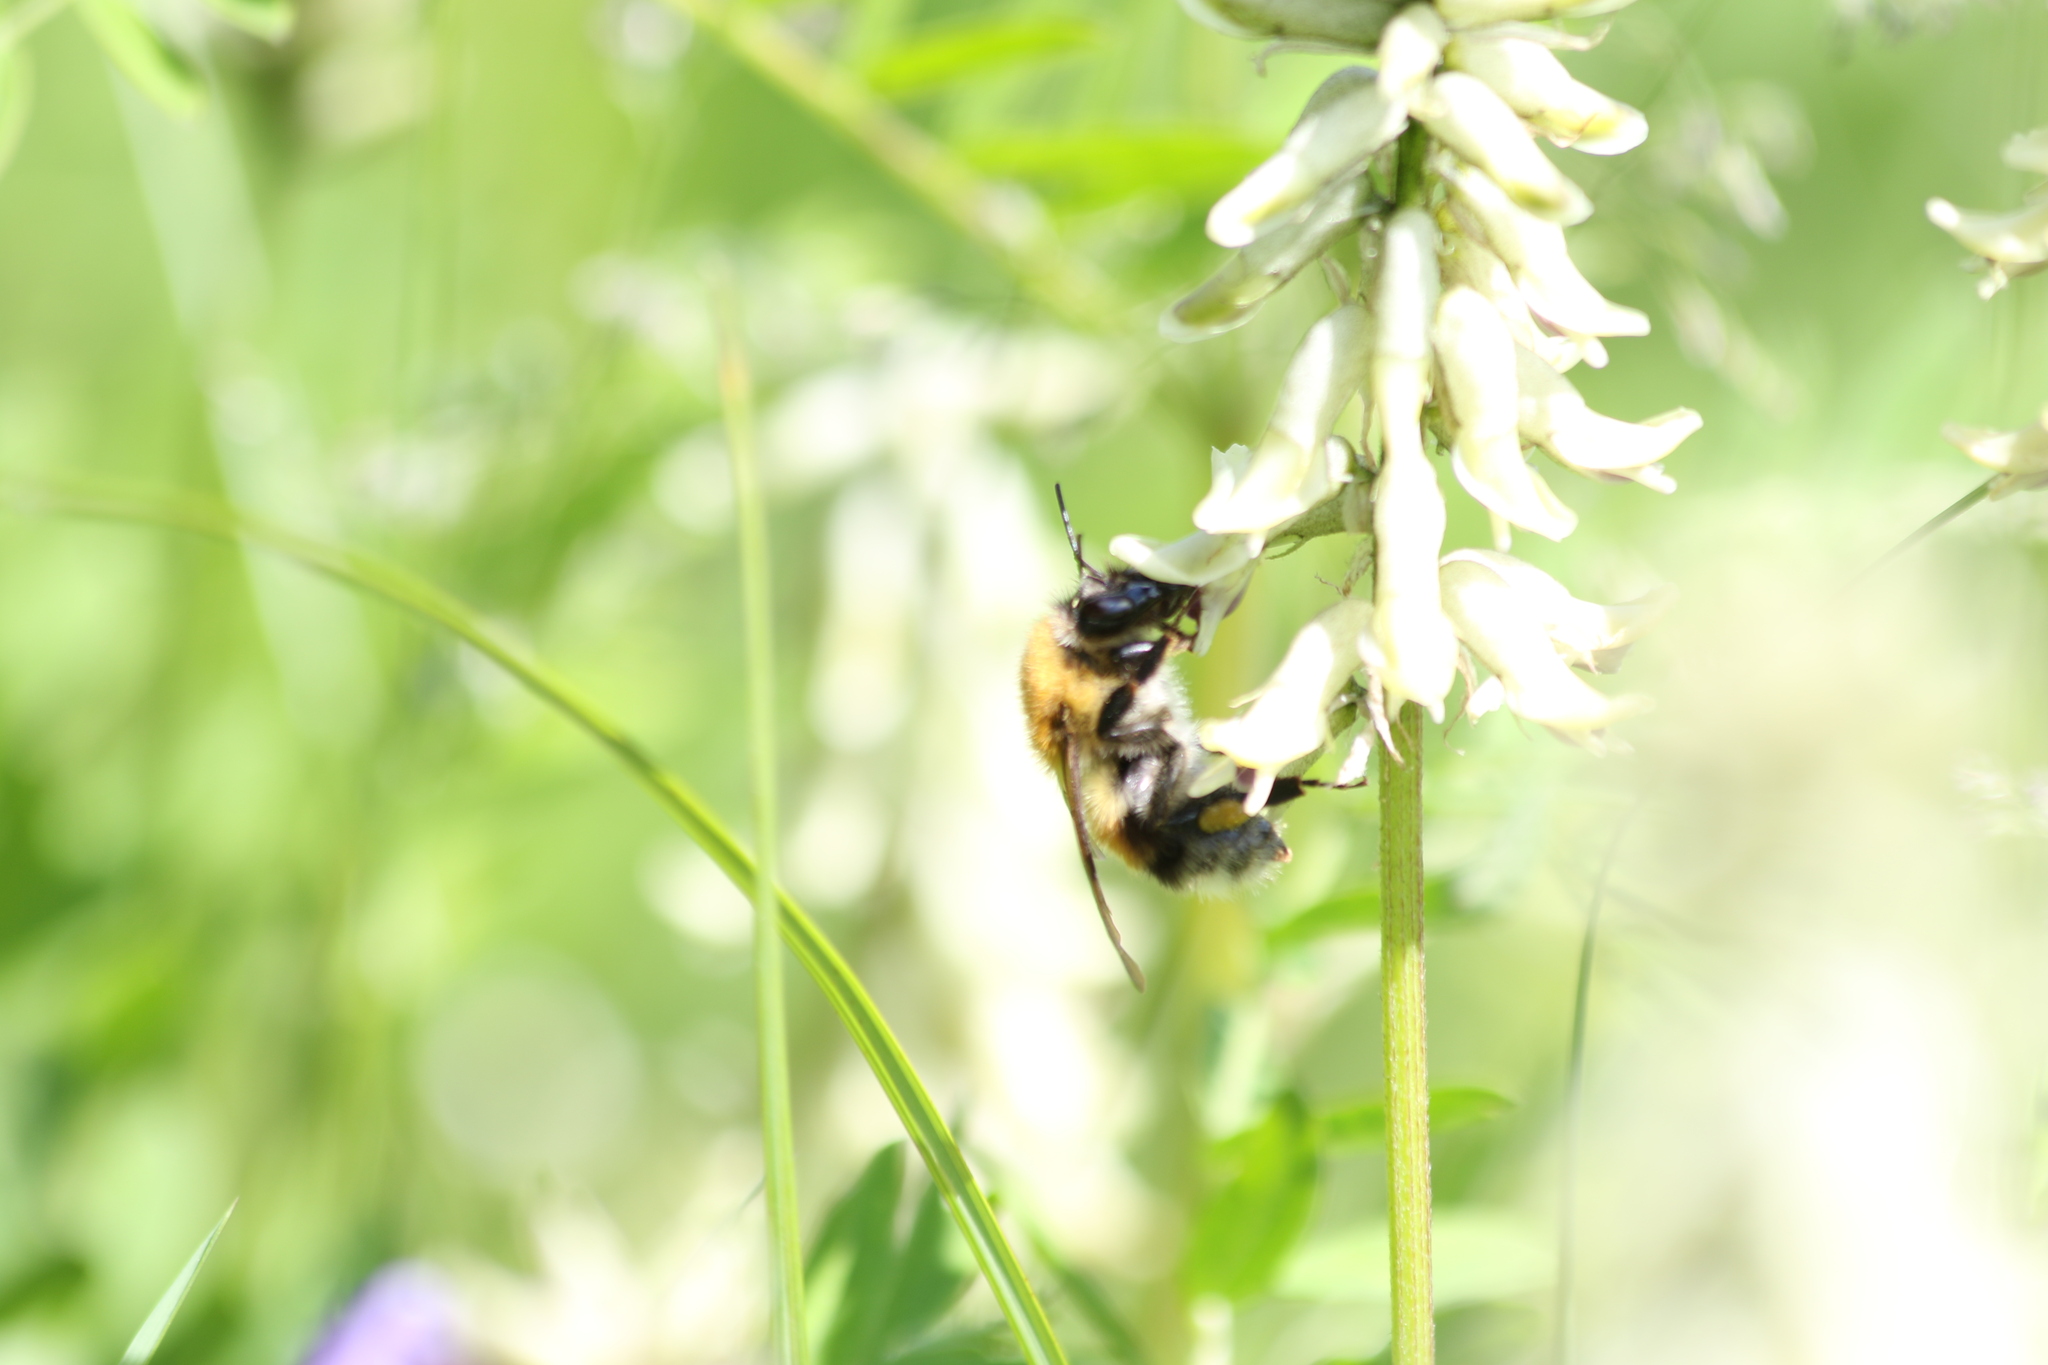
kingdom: Animalia
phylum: Arthropoda
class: Insecta
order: Hymenoptera
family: Apidae
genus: Bombus
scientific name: Bombus consobrinus
